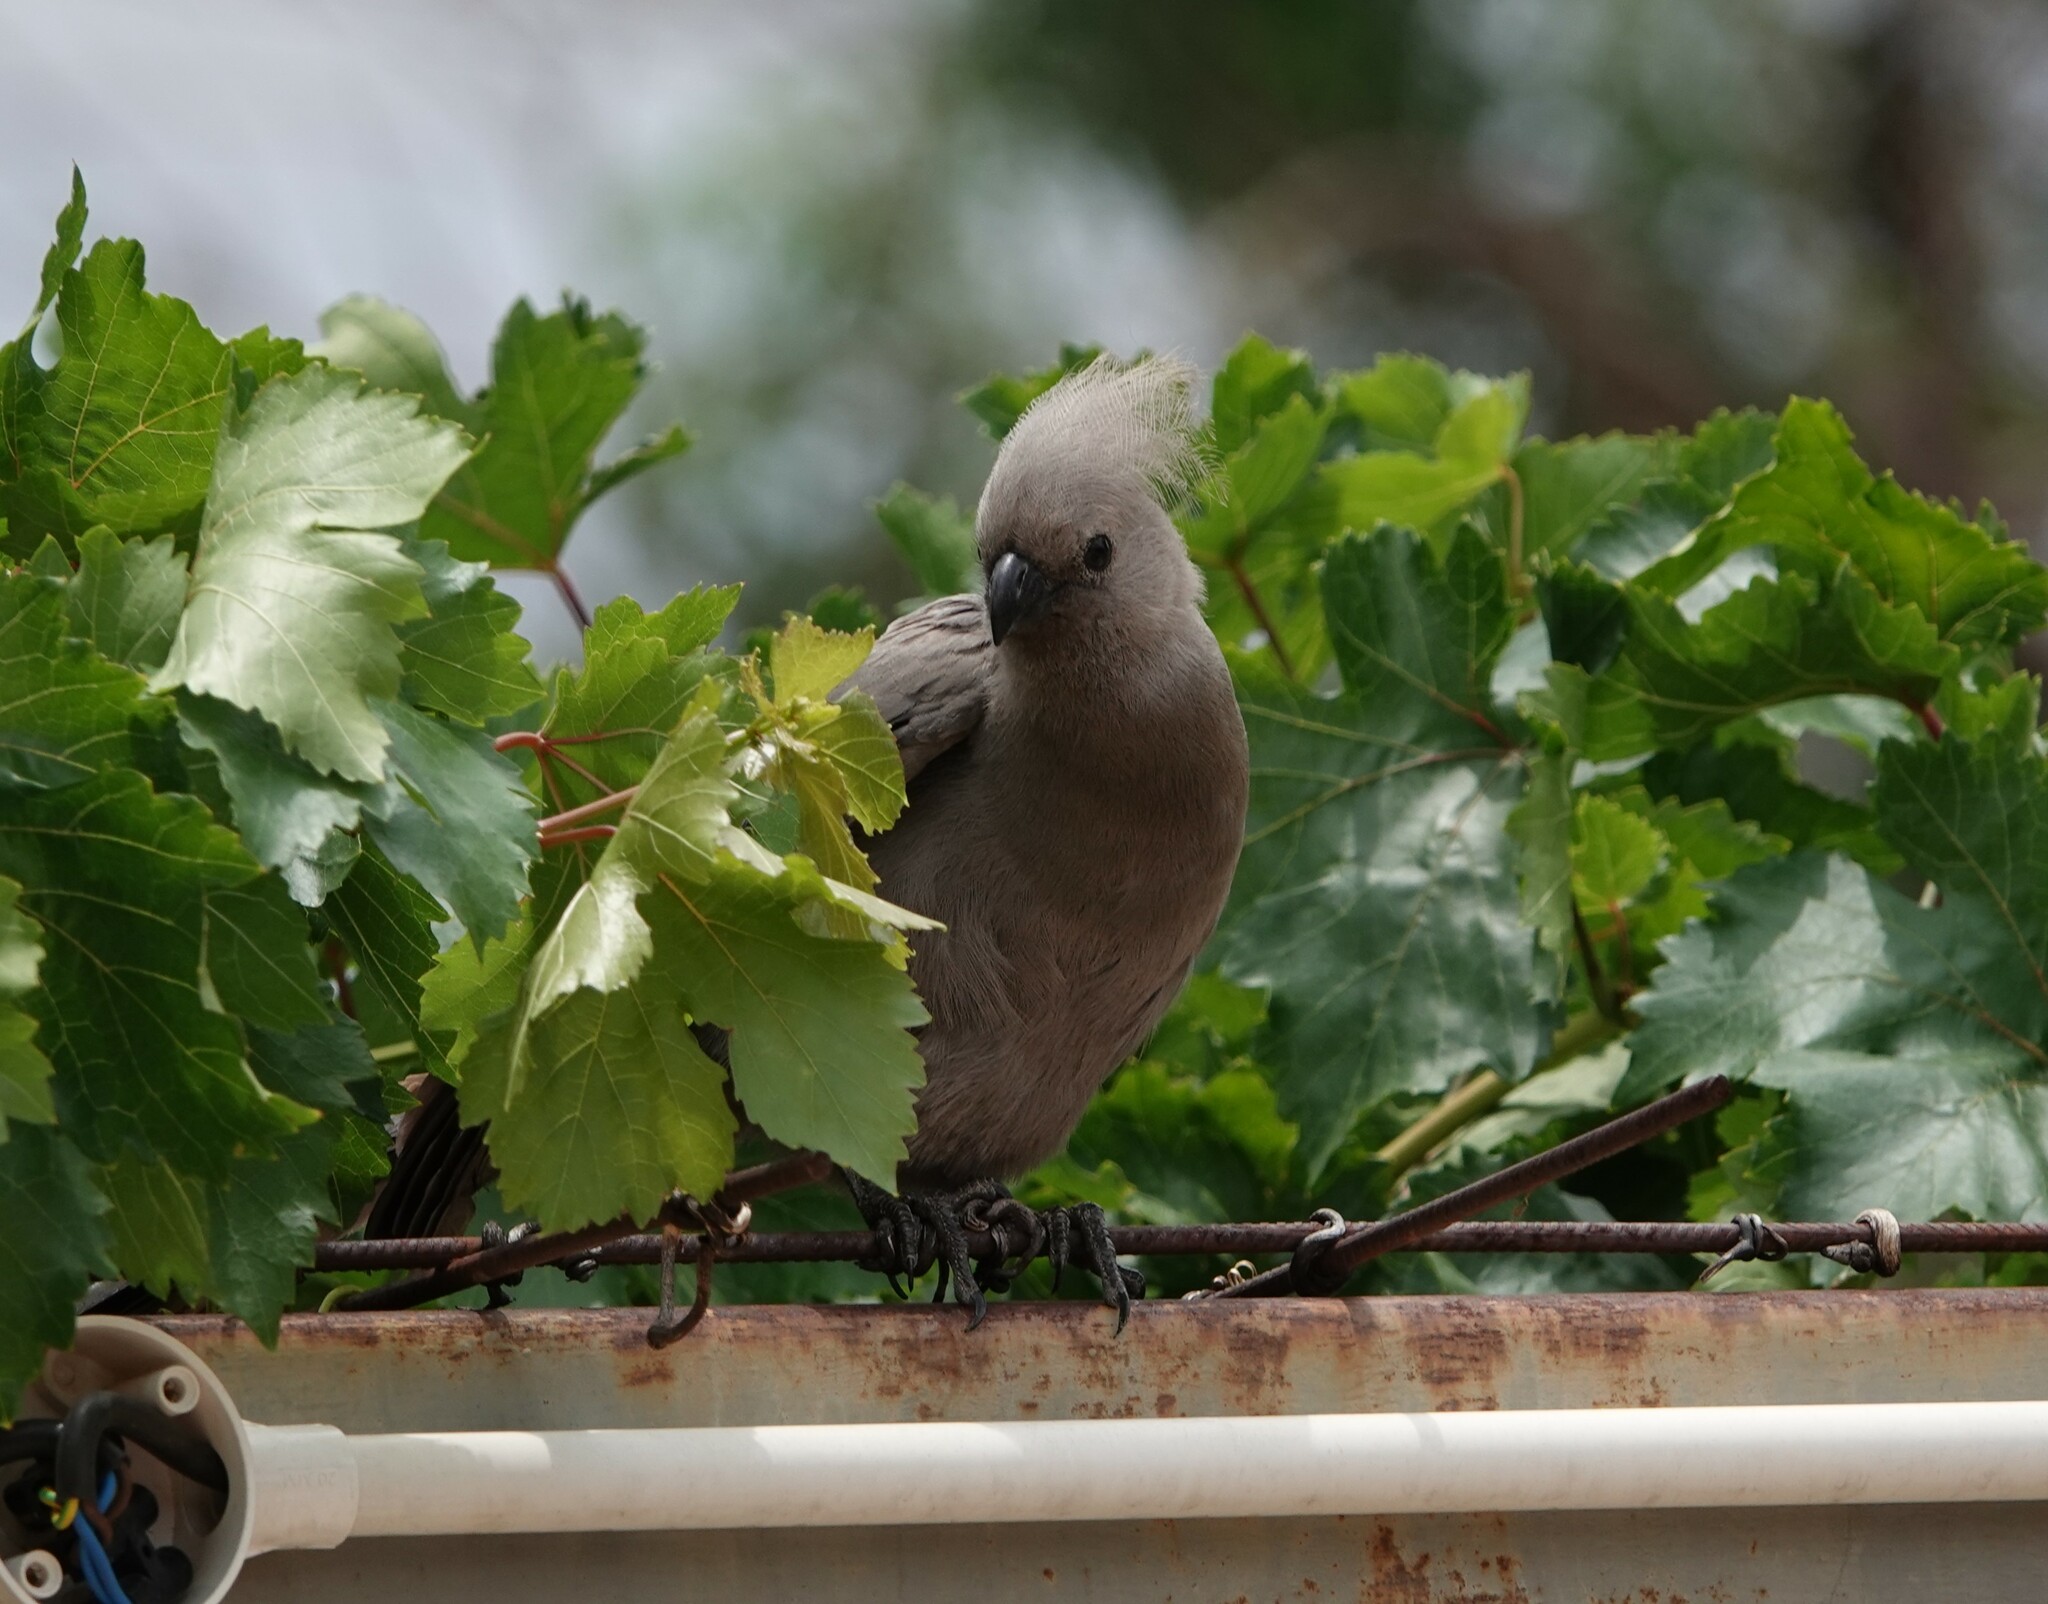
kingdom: Animalia
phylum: Chordata
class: Aves
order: Musophagiformes
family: Musophagidae
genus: Corythaixoides
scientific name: Corythaixoides concolor
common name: Grey go-away-bird
